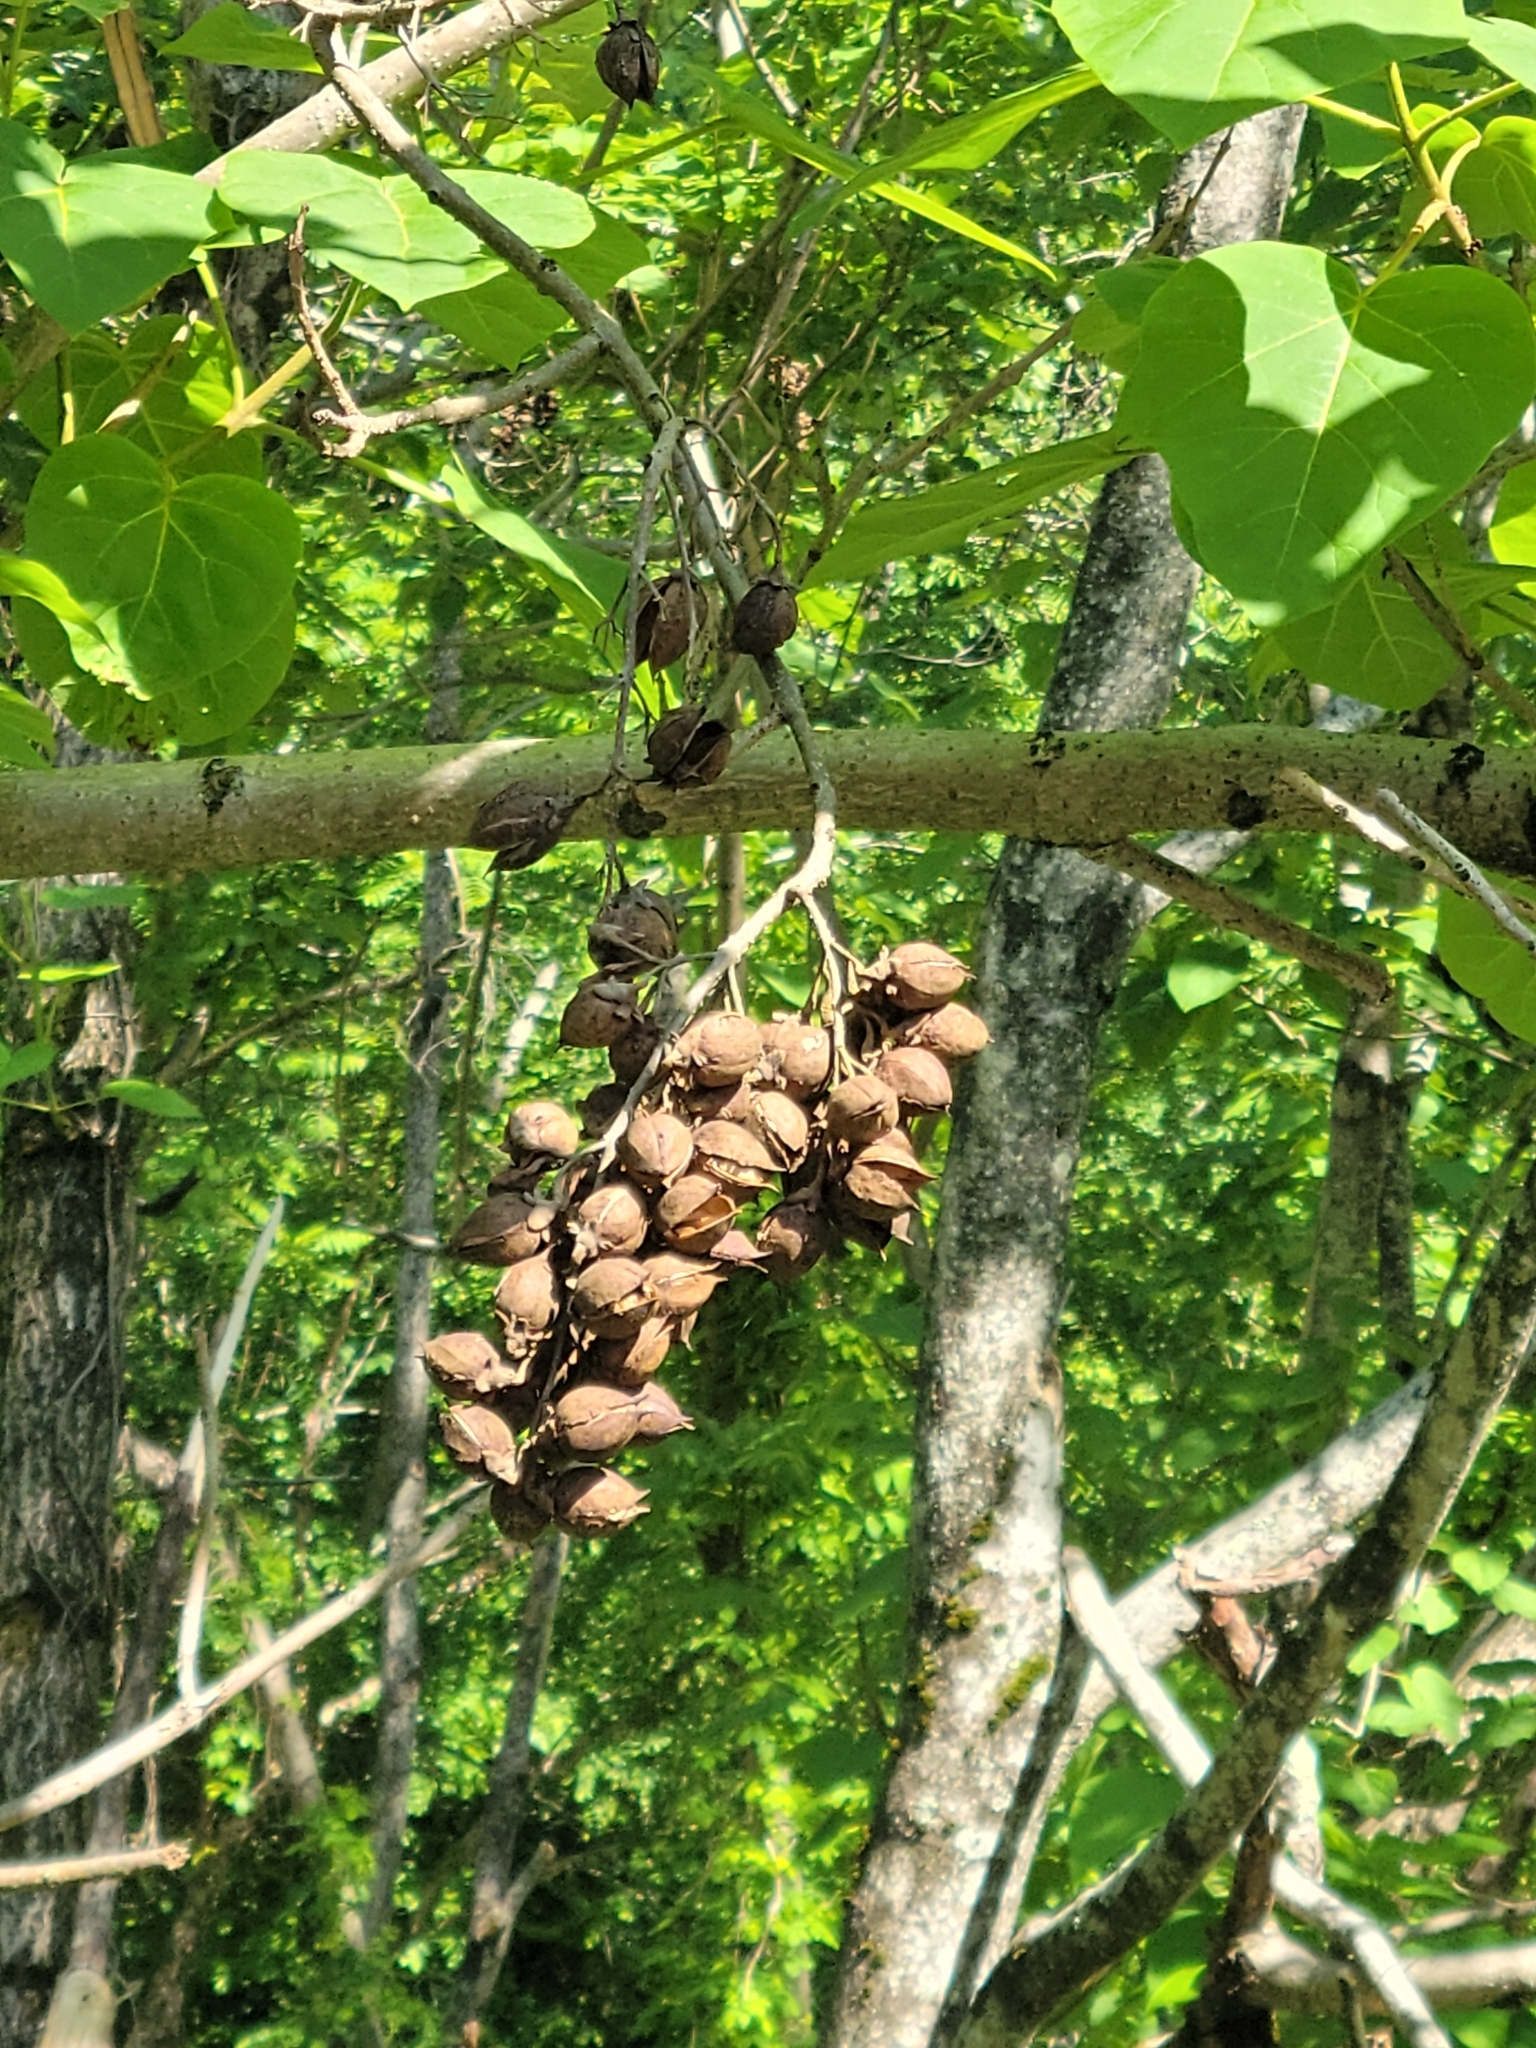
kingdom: Plantae
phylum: Tracheophyta
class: Magnoliopsida
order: Lamiales
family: Paulowniaceae
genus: Paulownia
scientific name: Paulownia tomentosa
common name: Foxglove-tree
